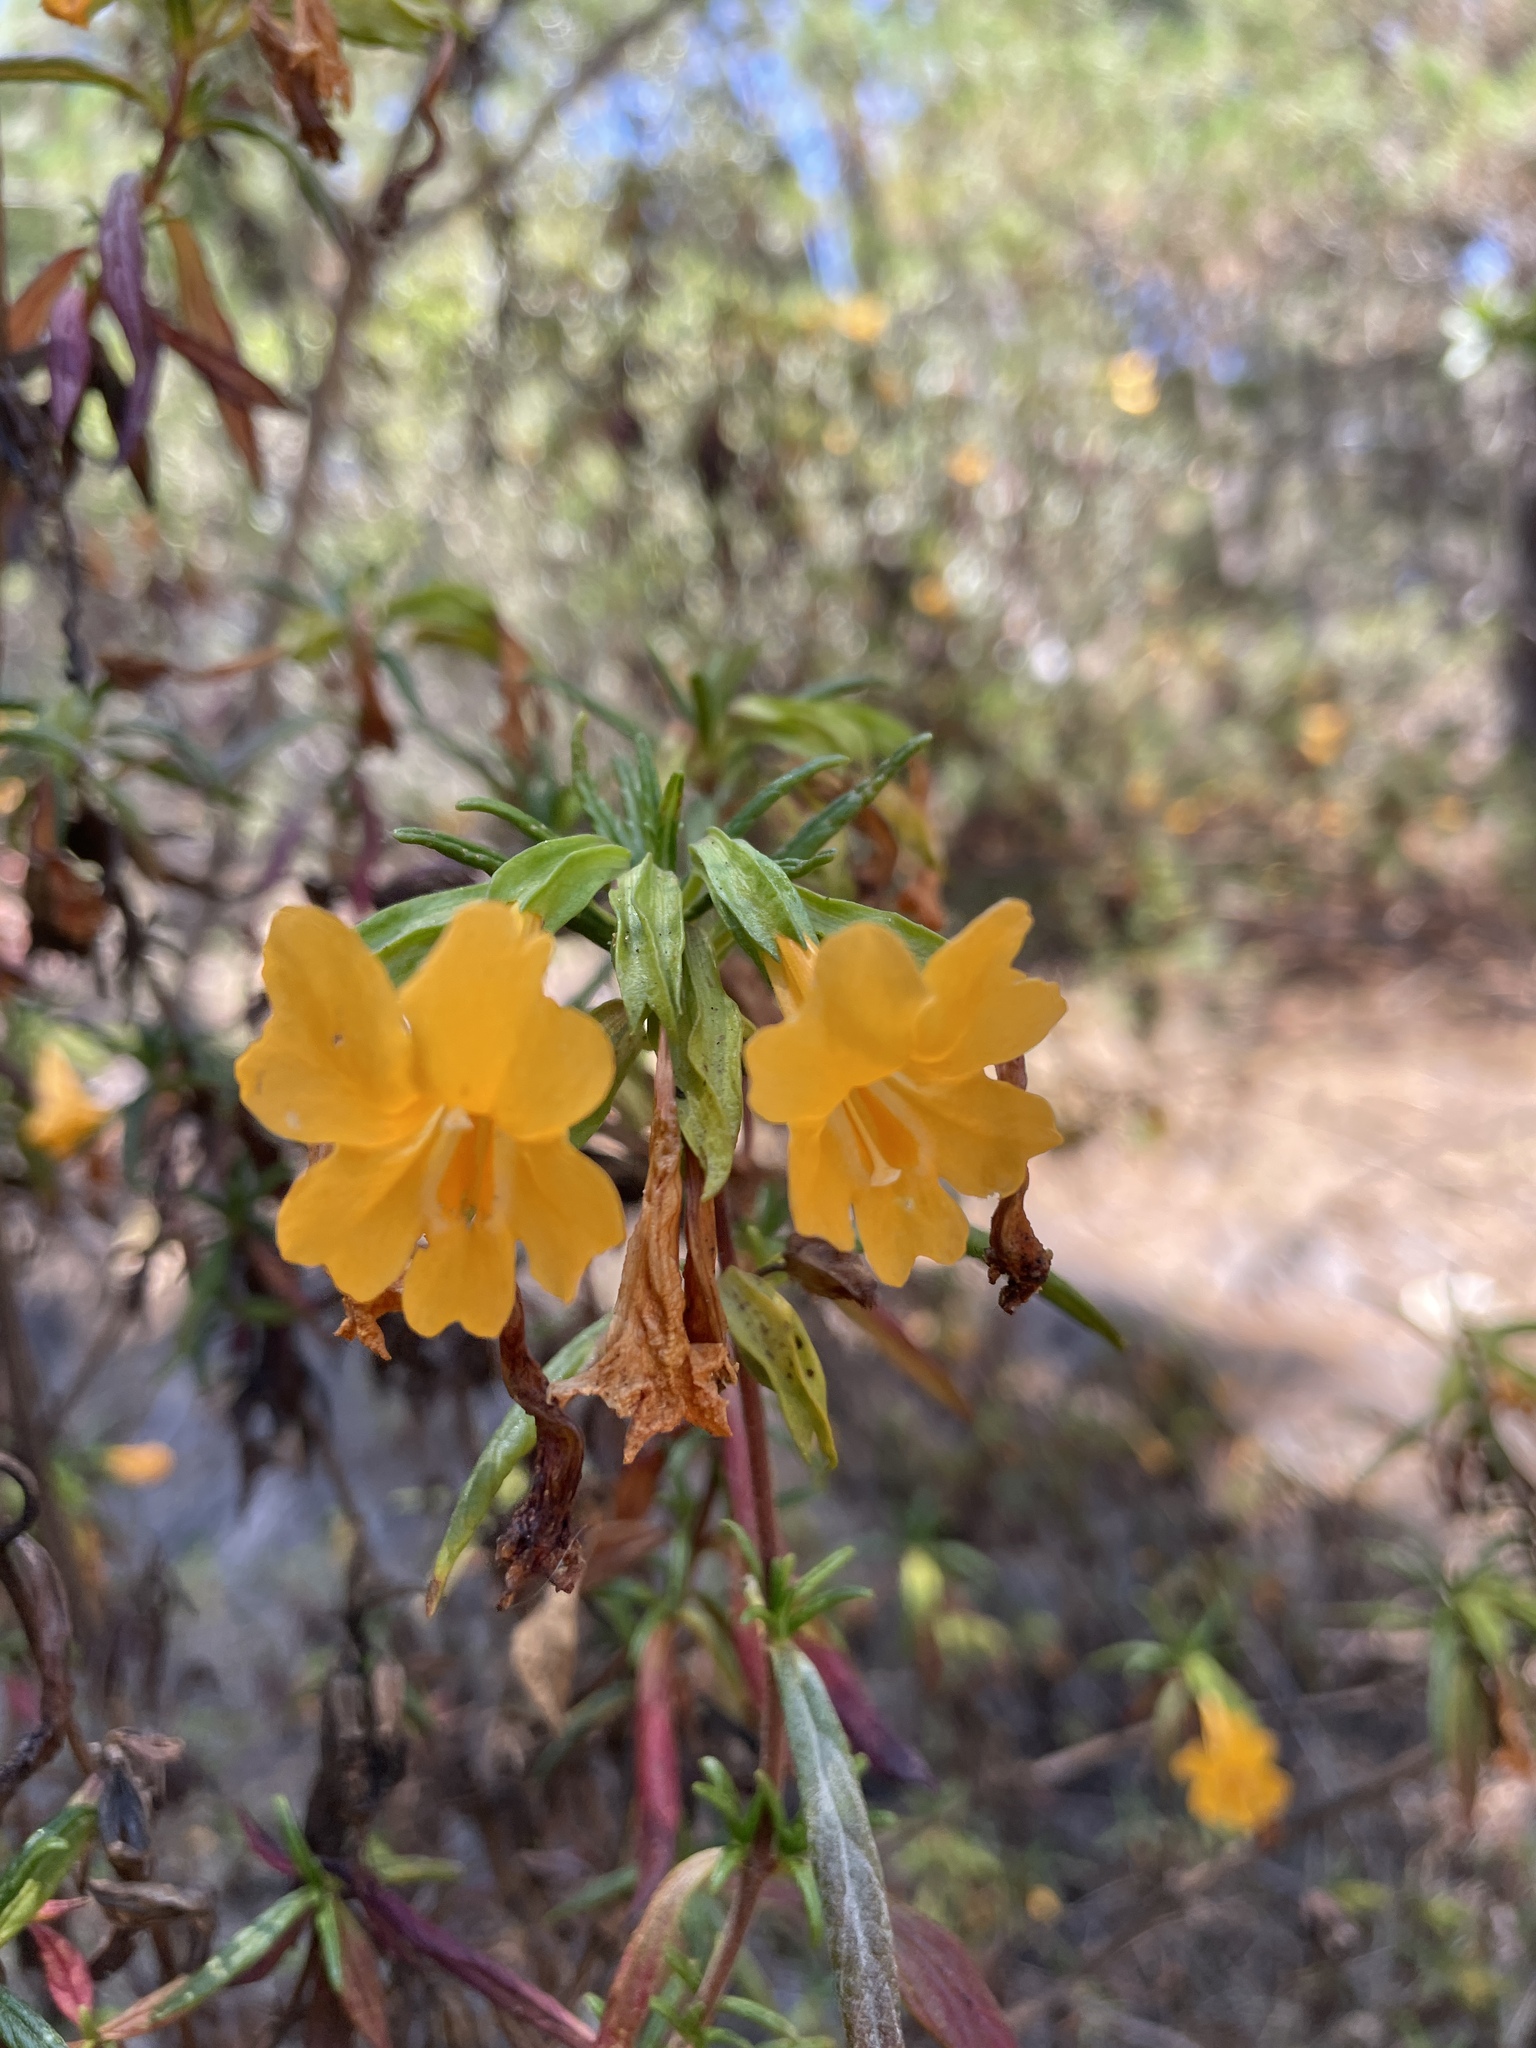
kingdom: Plantae
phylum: Tracheophyta
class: Magnoliopsida
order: Lamiales
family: Phrymaceae
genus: Diplacus
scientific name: Diplacus aurantiacus
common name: Bush monkey-flower
